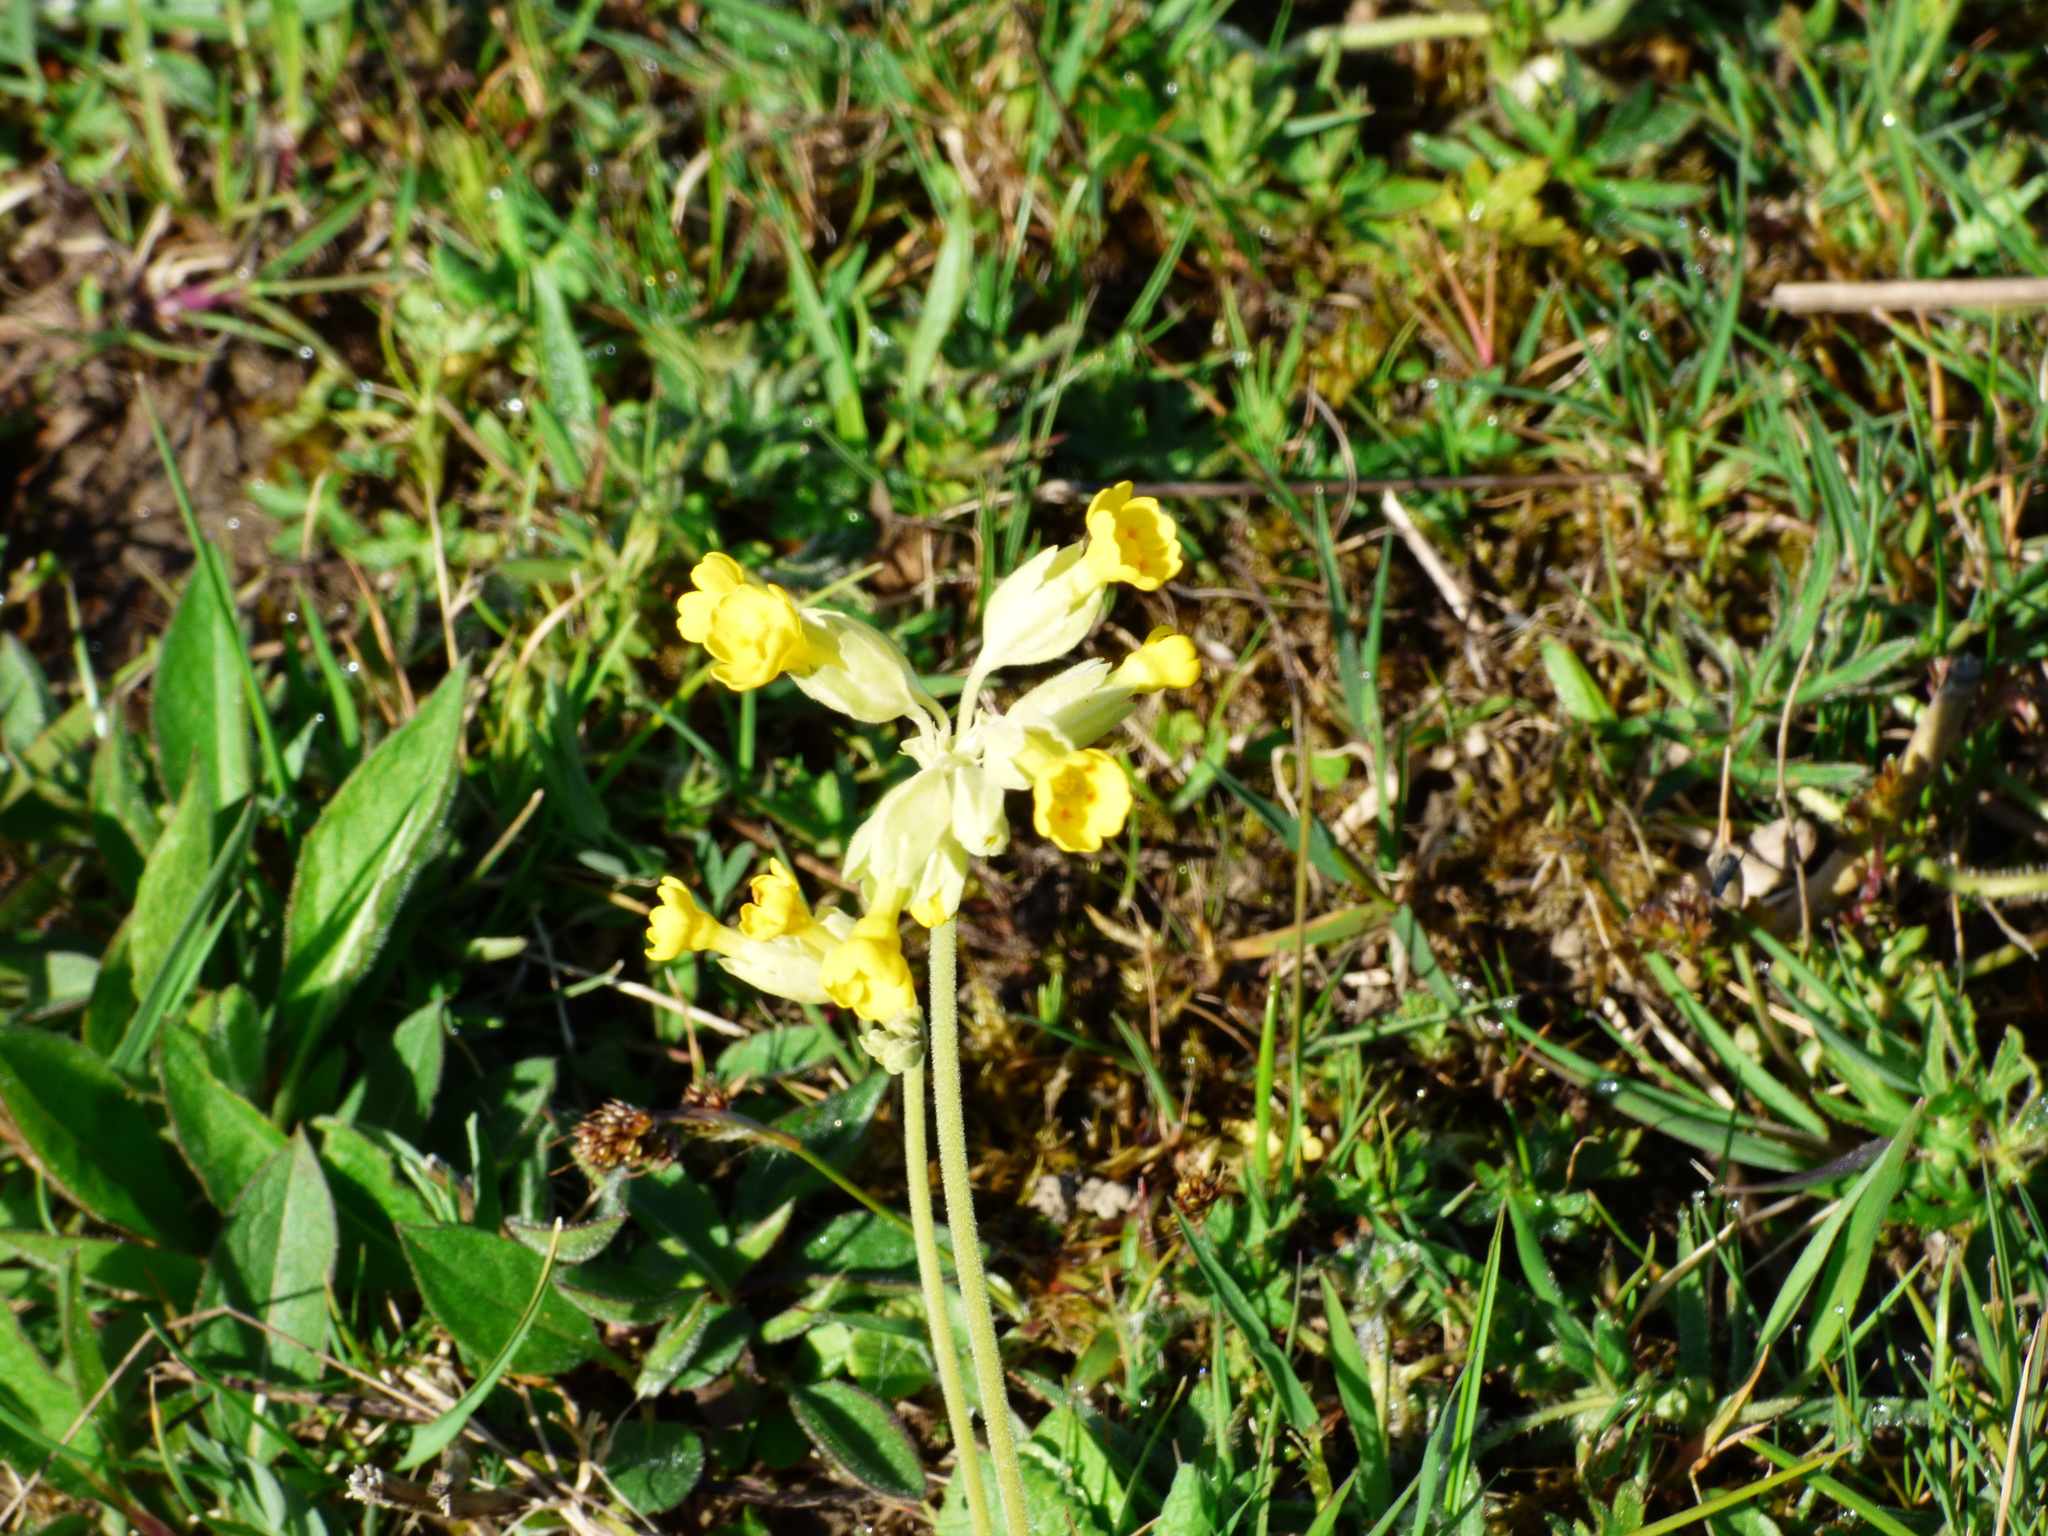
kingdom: Plantae
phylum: Tracheophyta
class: Magnoliopsida
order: Ericales
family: Primulaceae
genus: Primula
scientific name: Primula veris
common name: Cowslip
